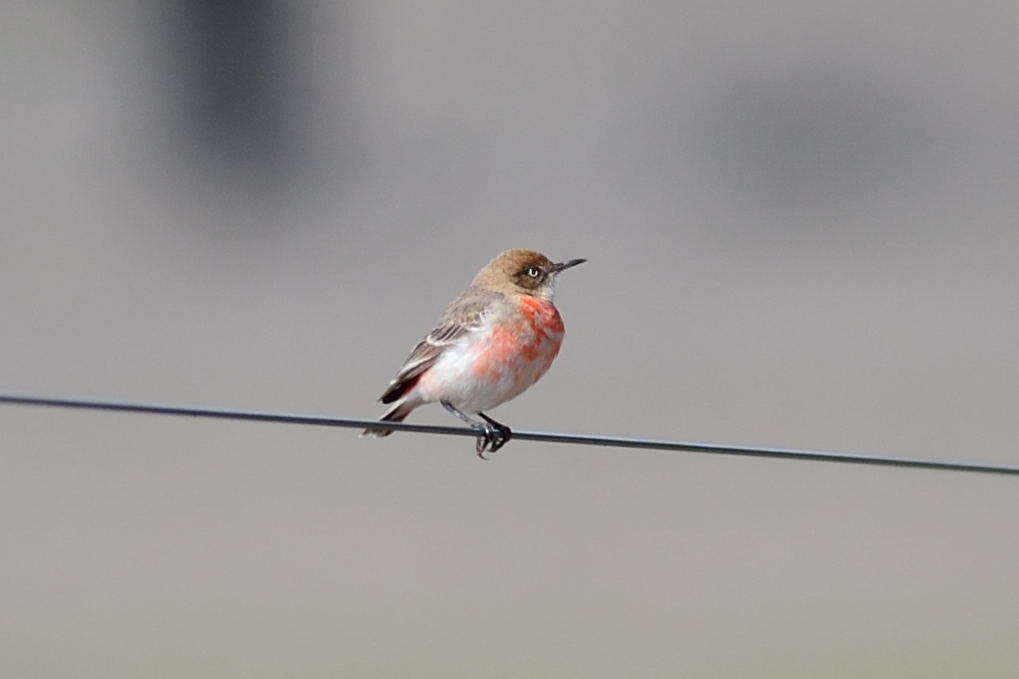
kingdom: Animalia
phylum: Chordata
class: Aves
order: Passeriformes
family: Meliphagidae
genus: Epthianura
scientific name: Epthianura tricolor
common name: Crimson chat
